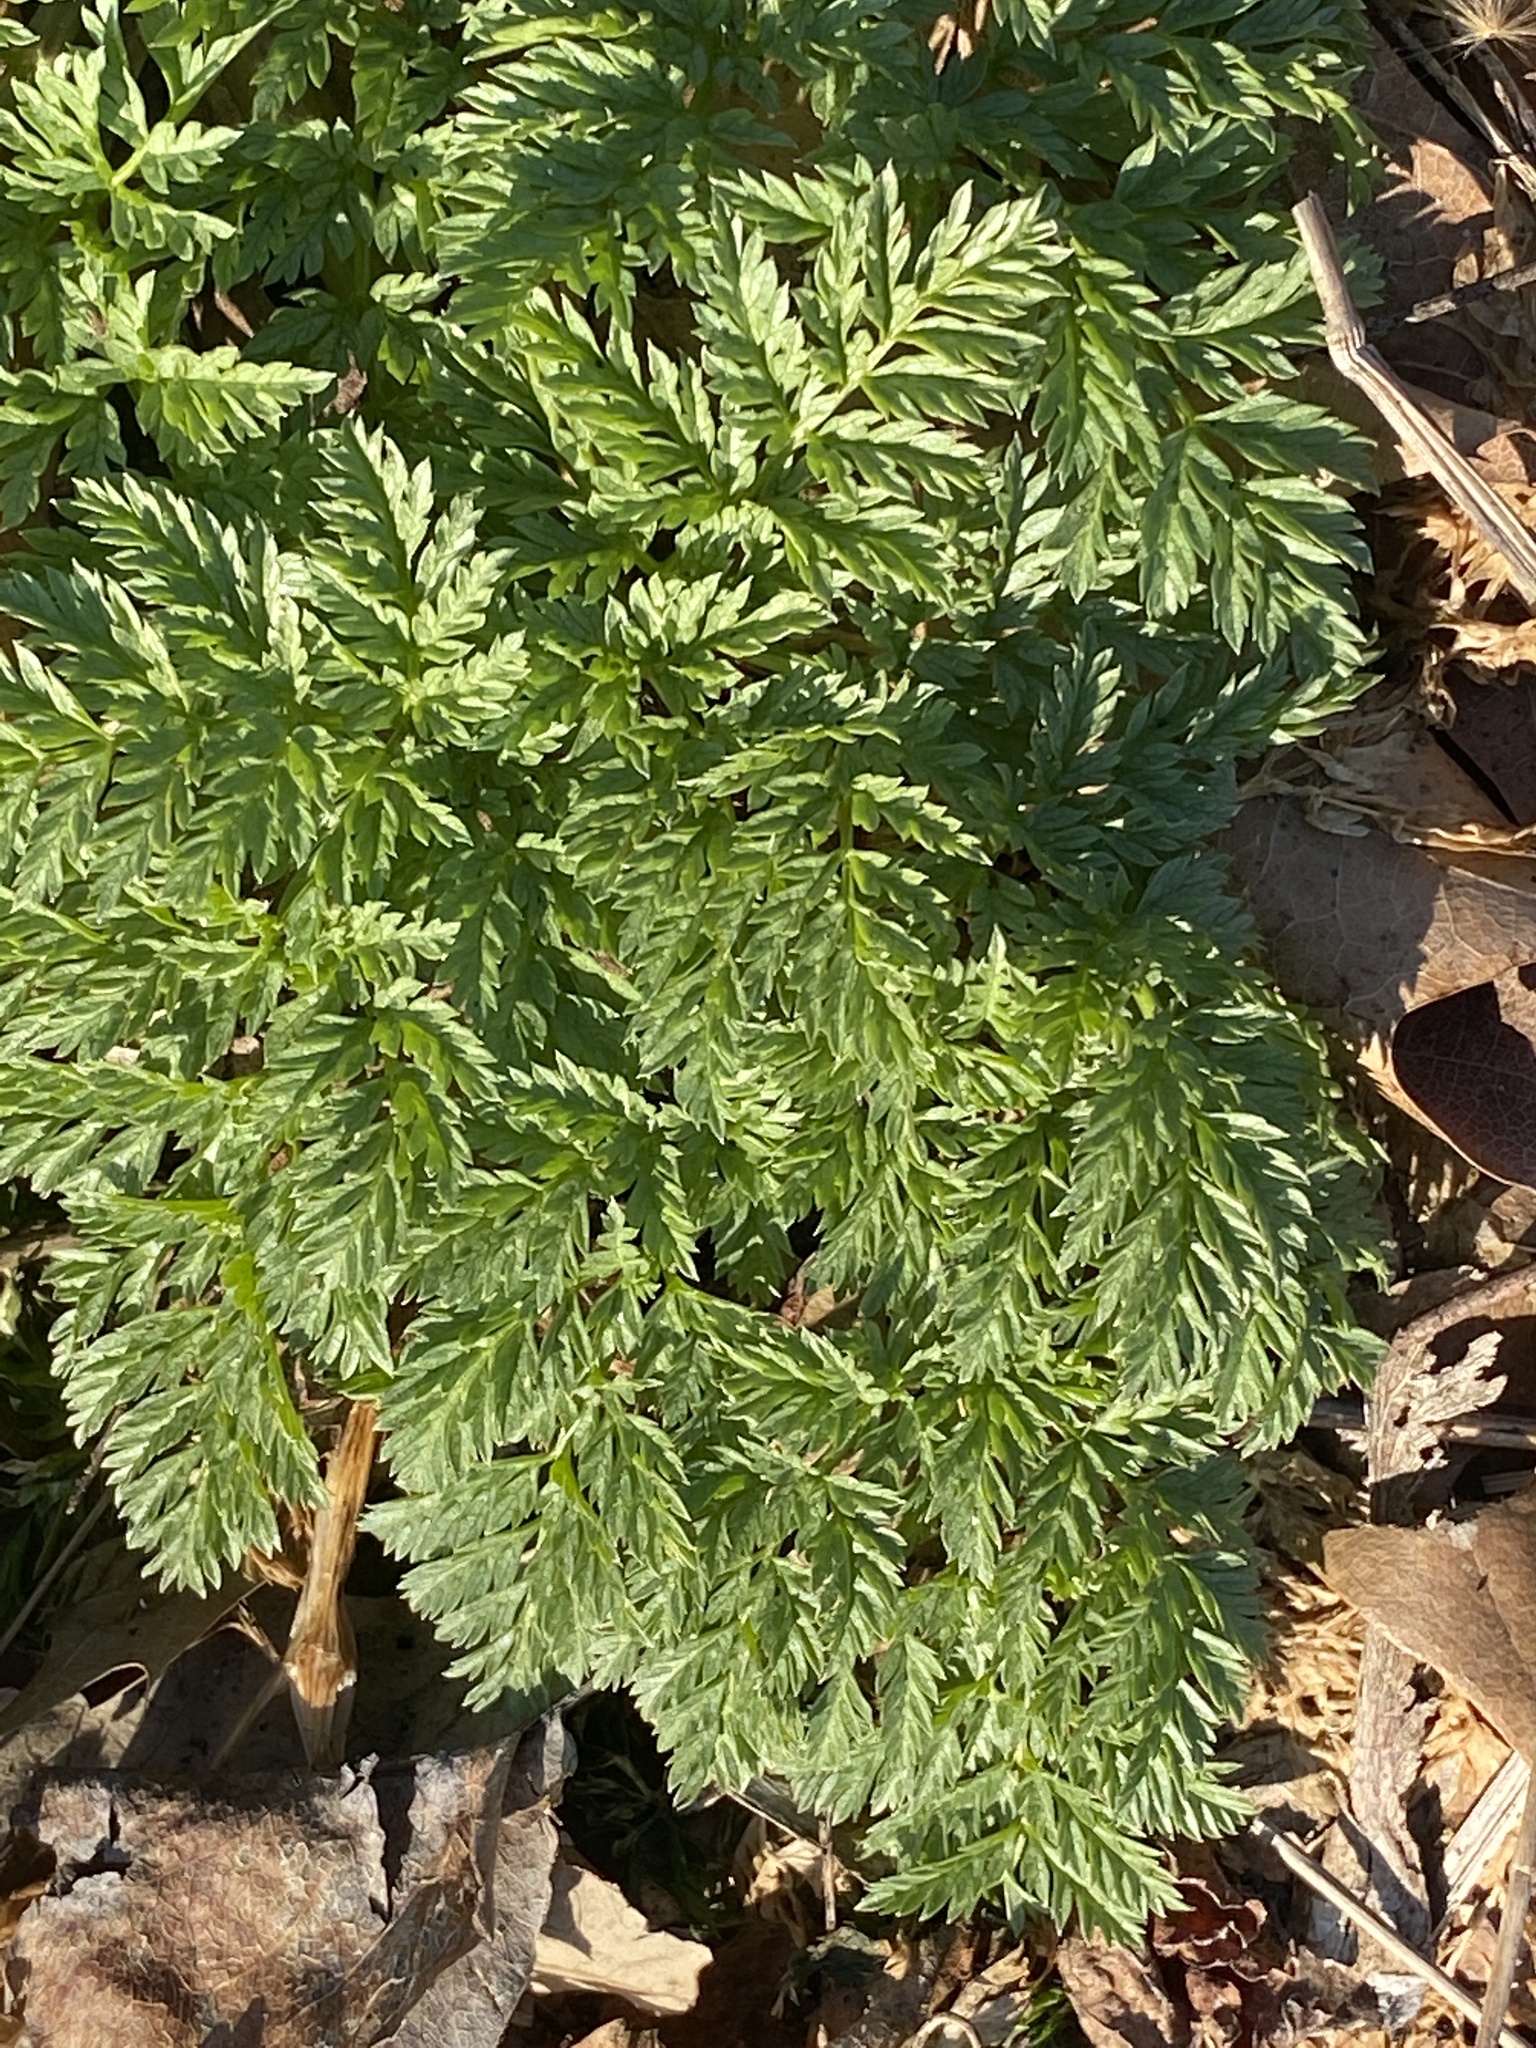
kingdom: Plantae
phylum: Tracheophyta
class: Magnoliopsida
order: Apiales
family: Apiaceae
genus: Conium
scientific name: Conium maculatum
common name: Hemlock
